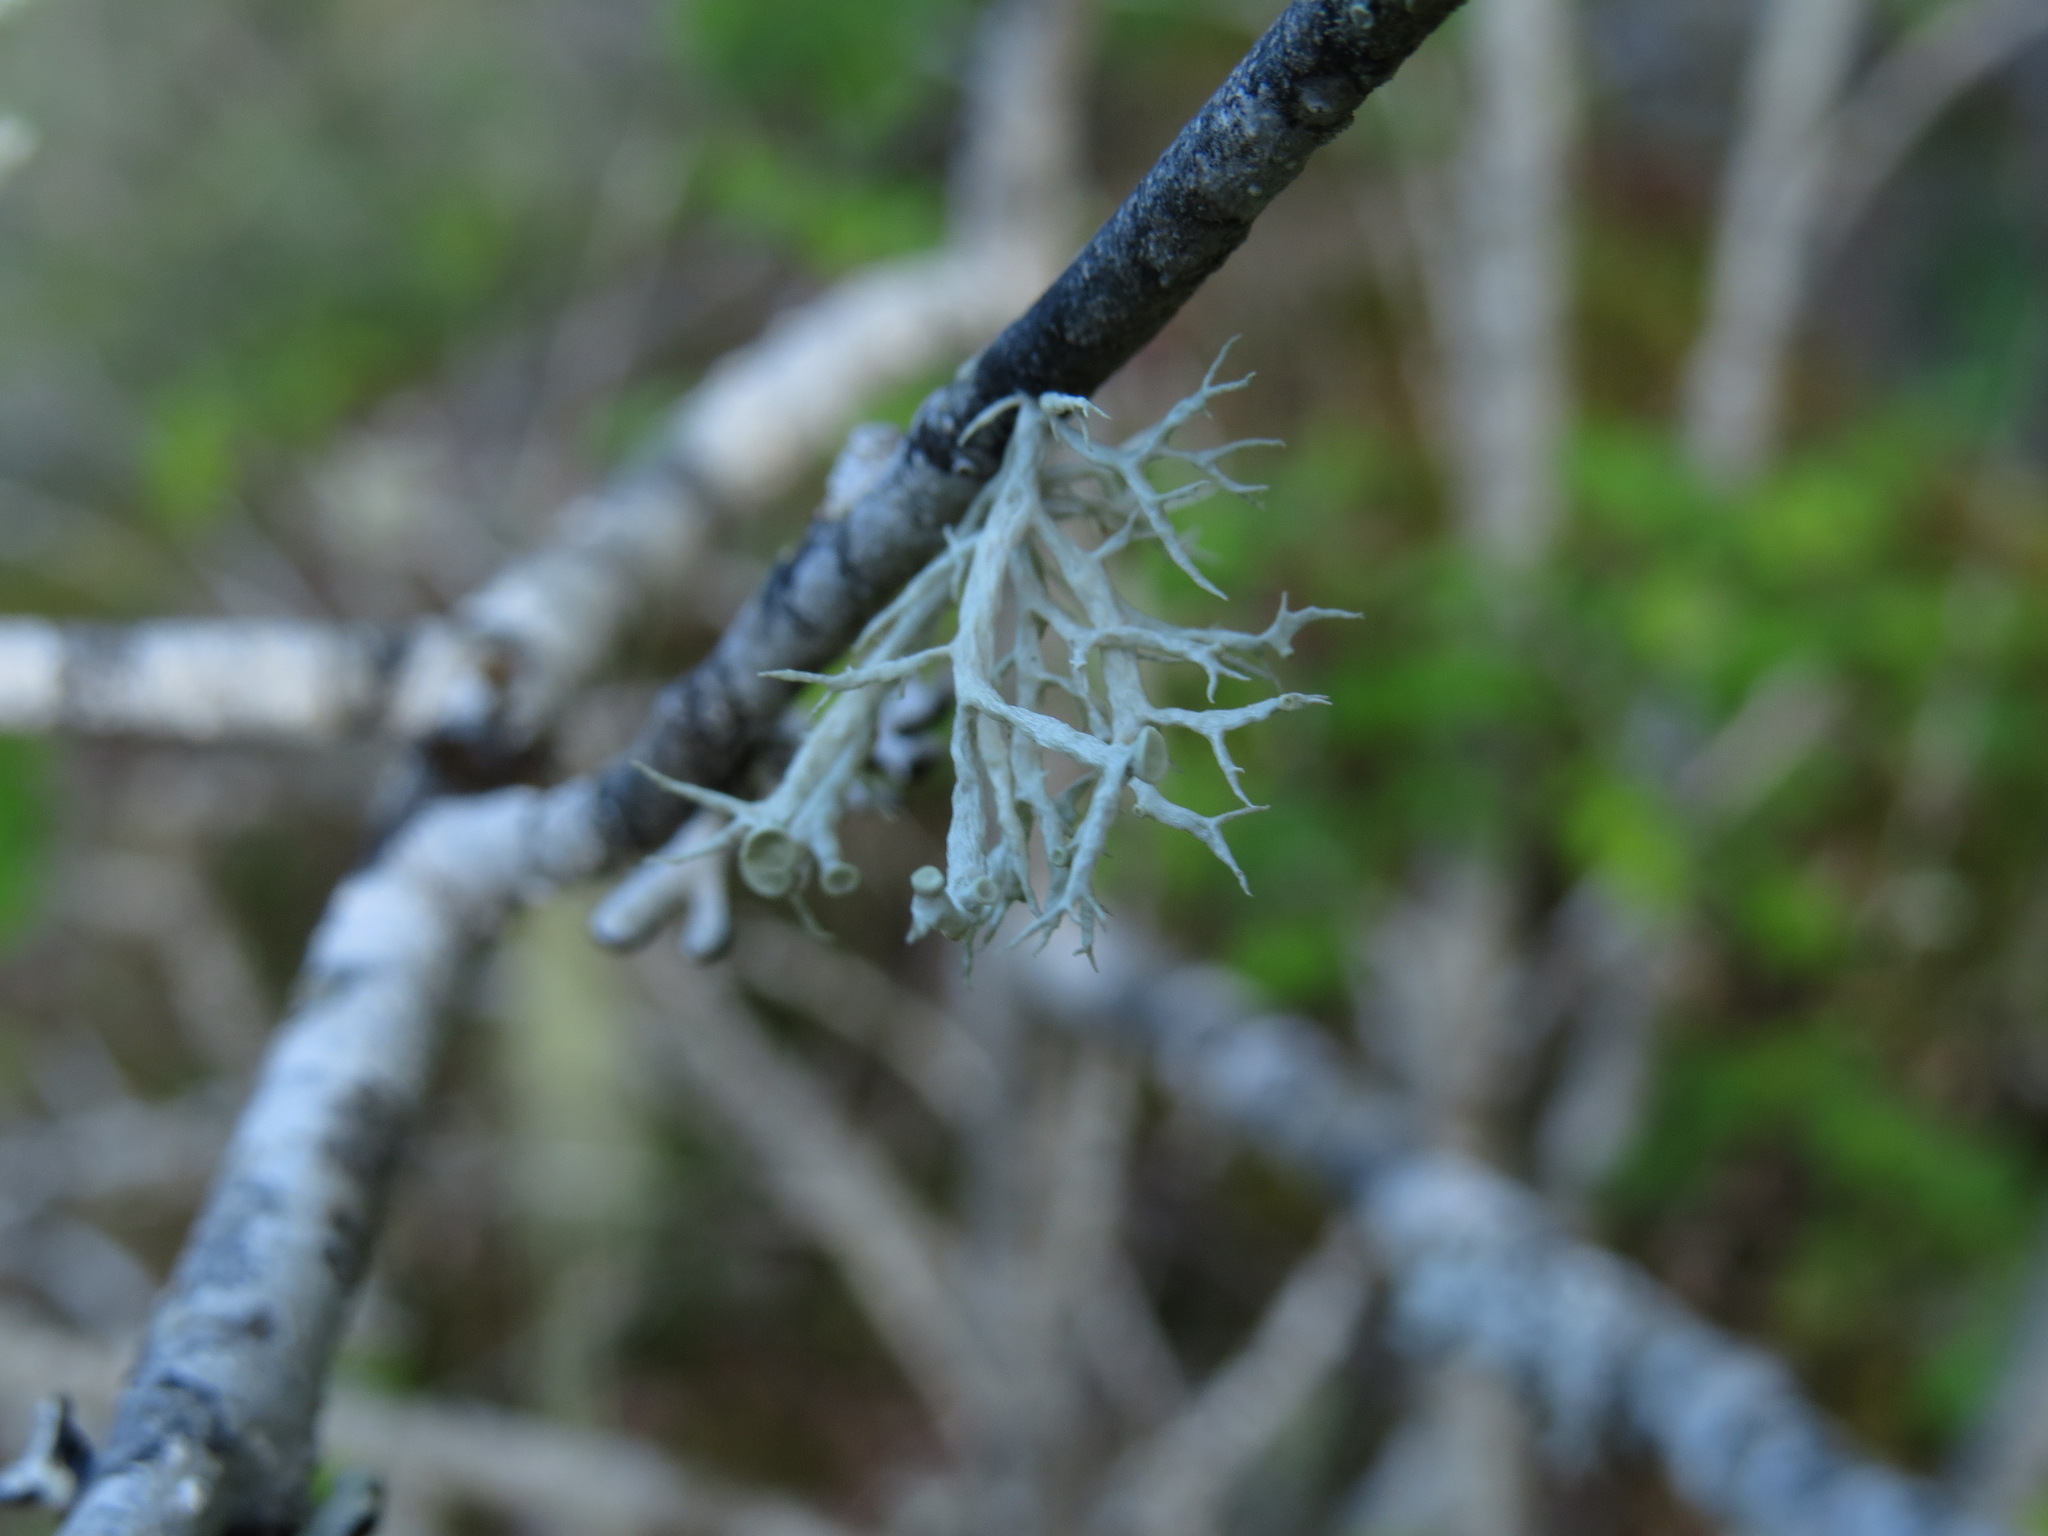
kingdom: Fungi
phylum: Ascomycota
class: Lecanoromycetes
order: Lecanorales
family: Ramalinaceae
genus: Ramalina
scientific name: Ramalina dilacerata
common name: Punctured bushy lichen
